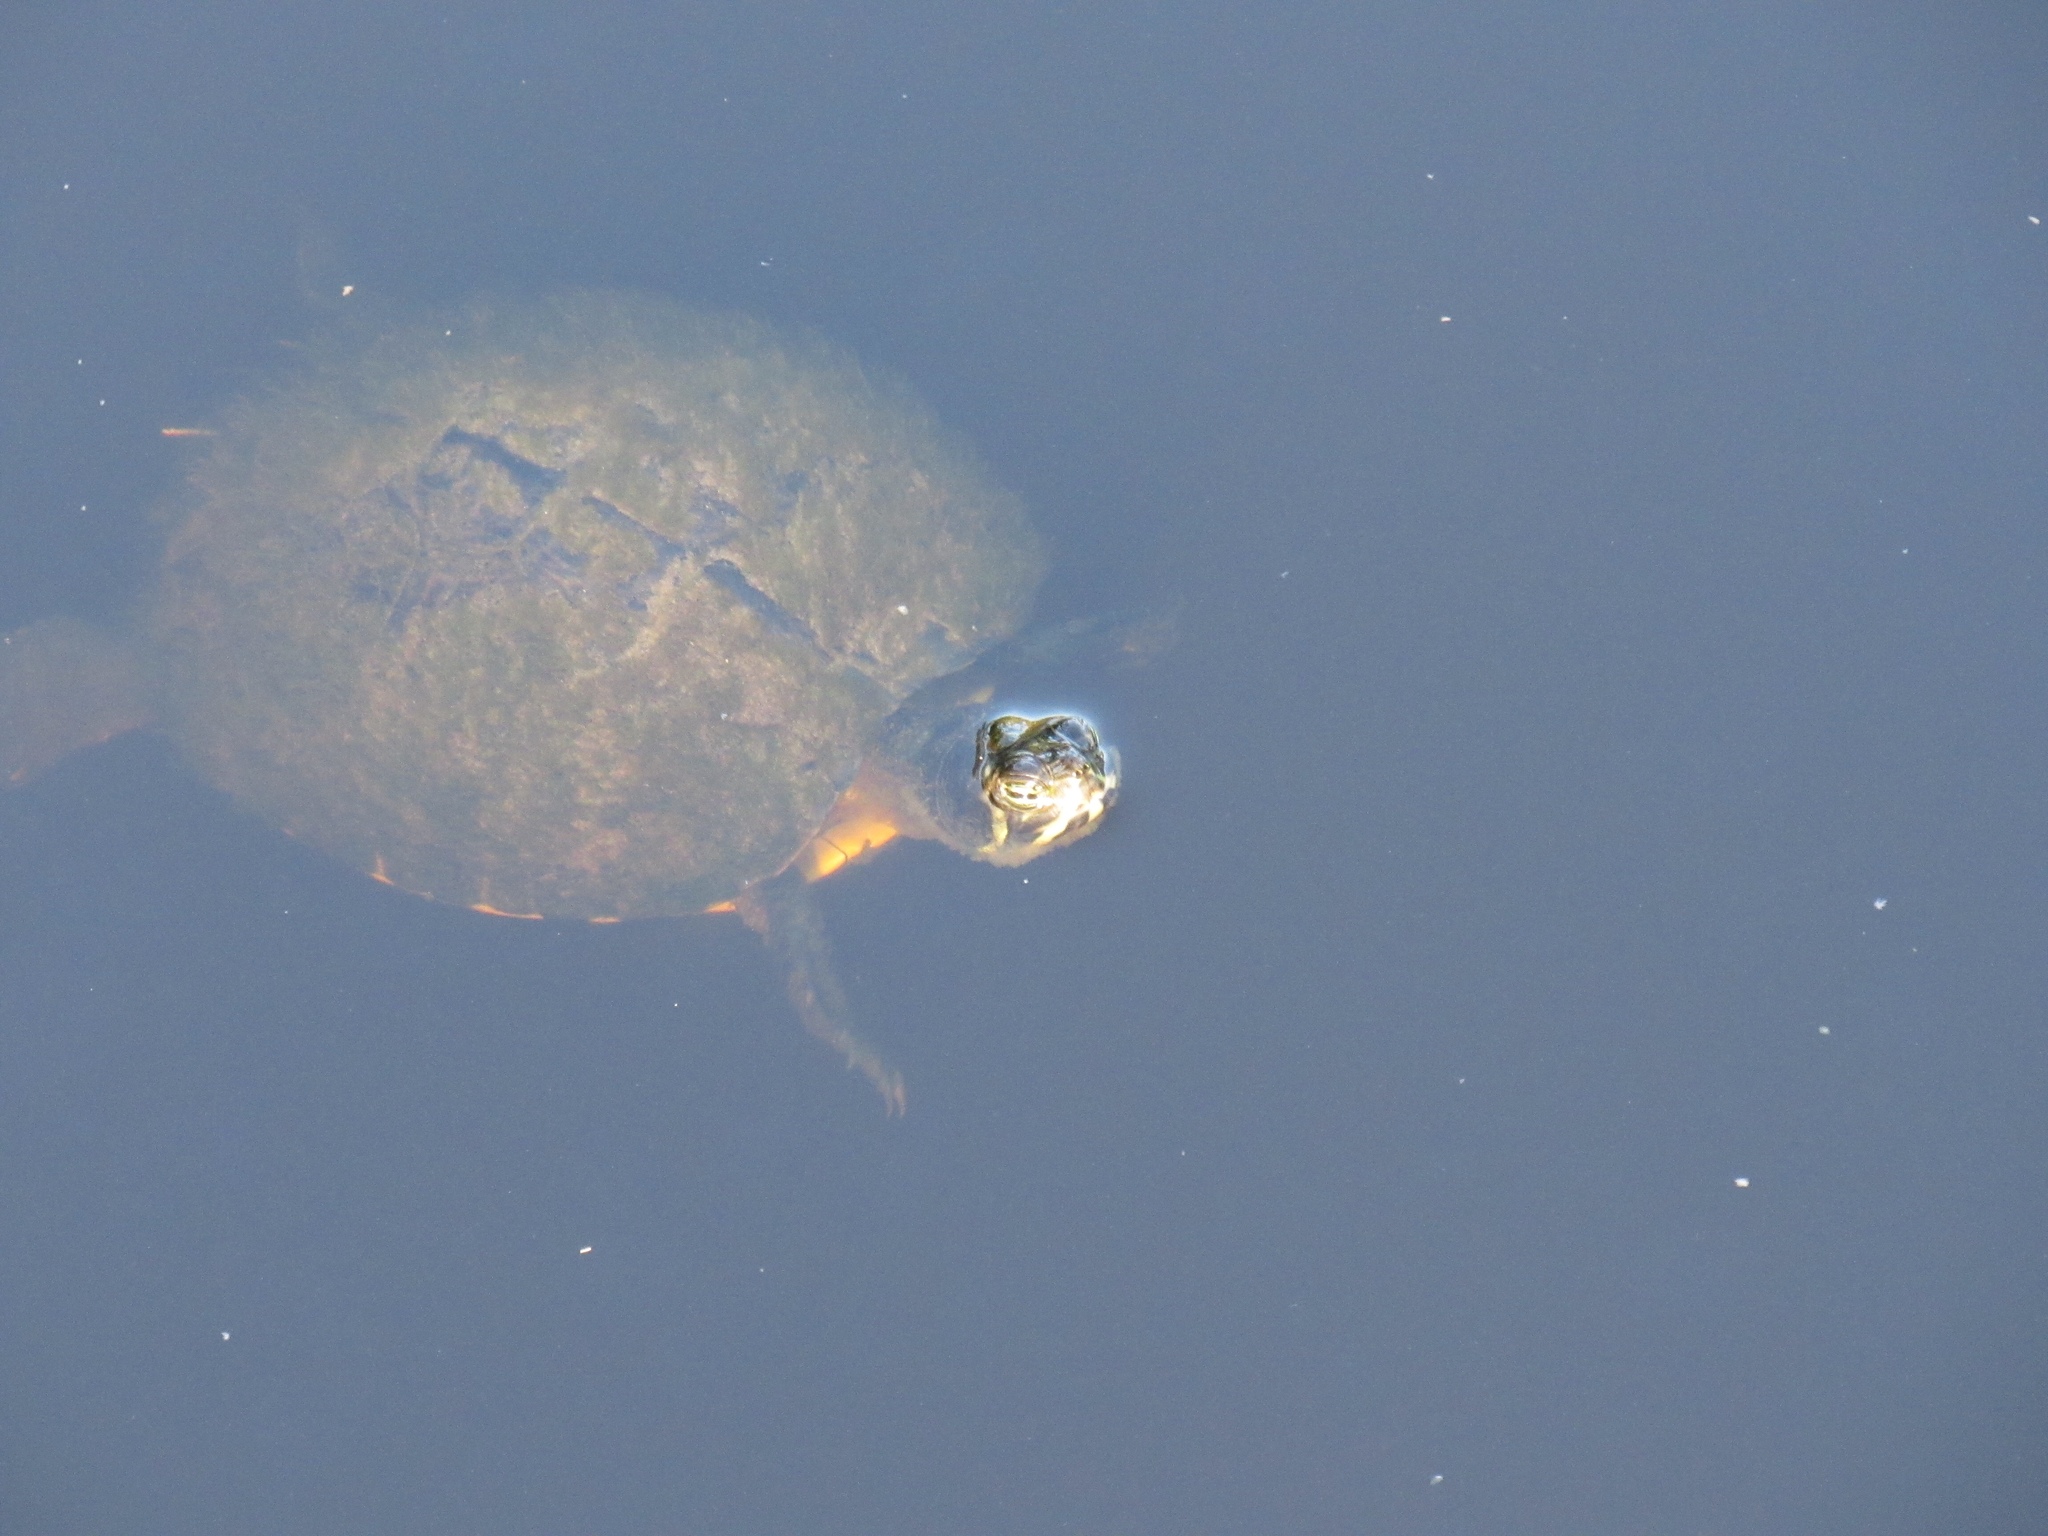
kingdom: Animalia
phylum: Chordata
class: Testudines
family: Emydidae
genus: Trachemys
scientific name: Trachemys scripta
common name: Slider
